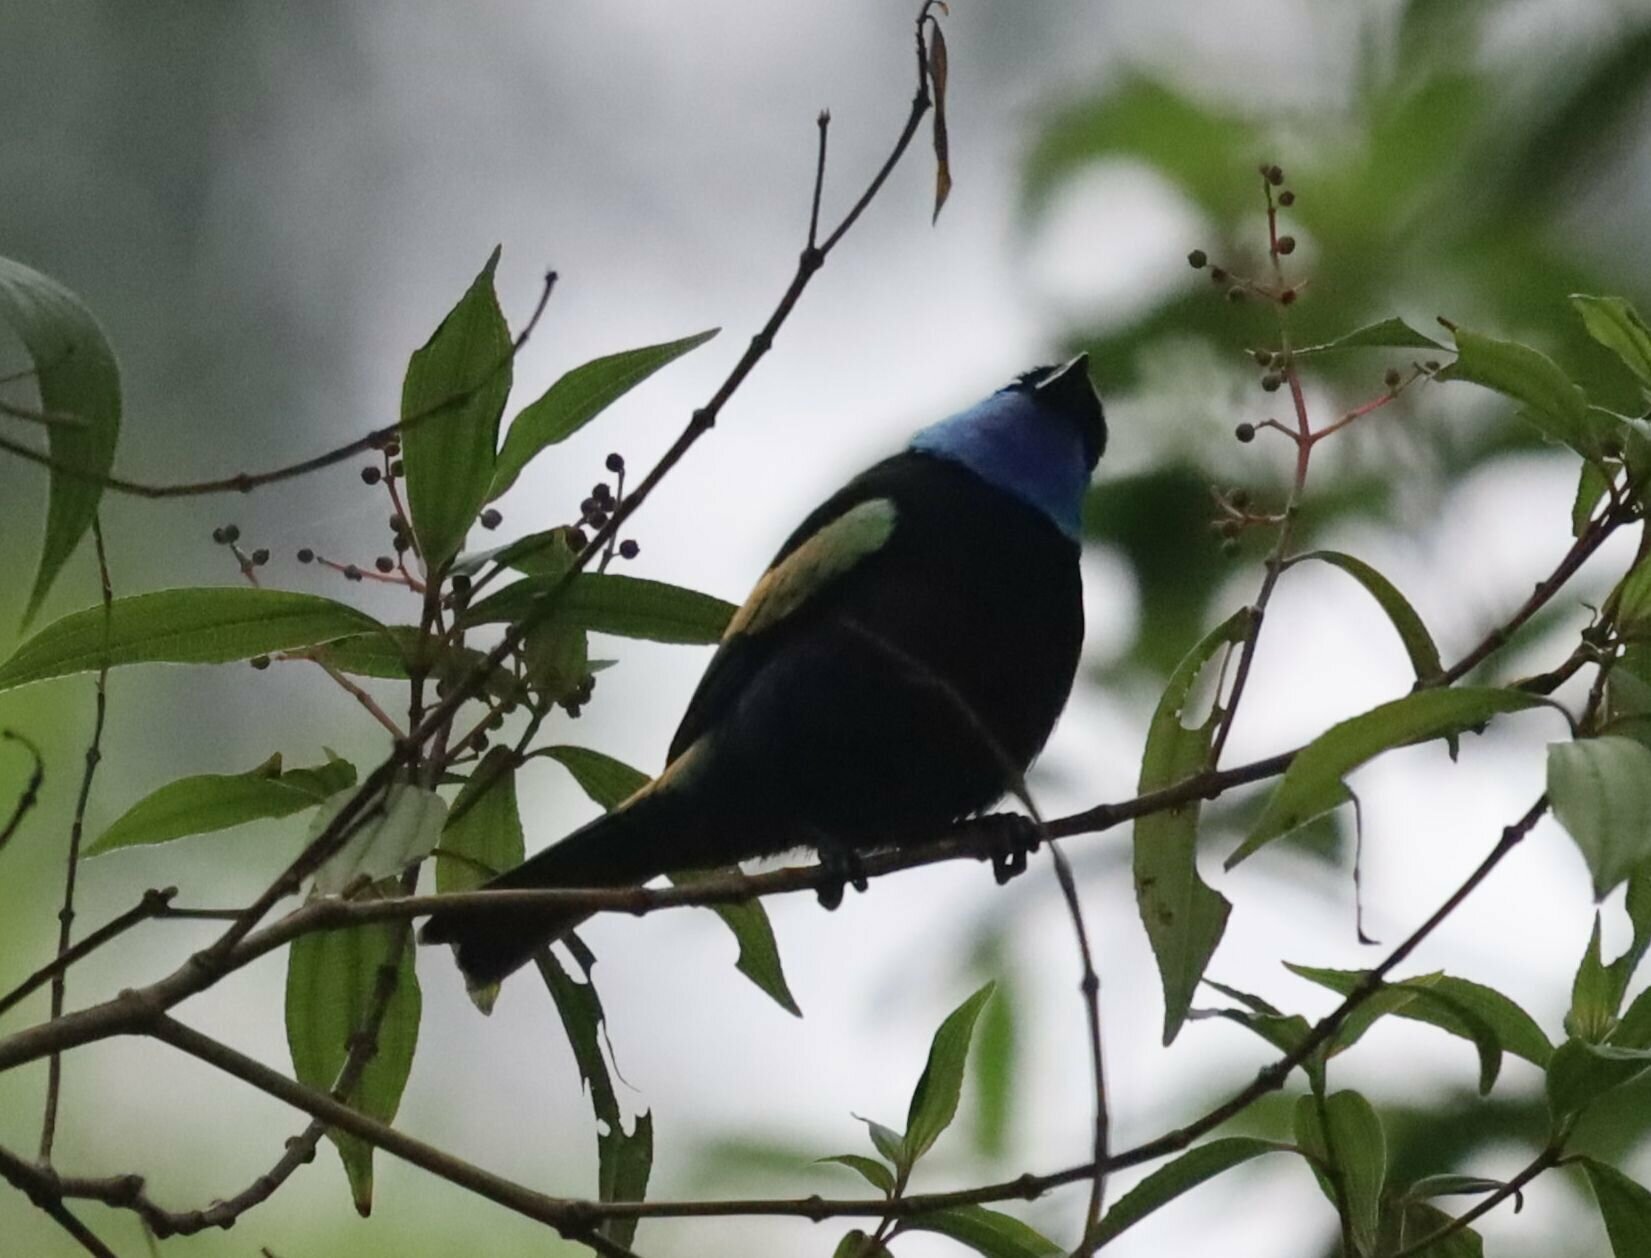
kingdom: Animalia
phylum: Chordata
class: Aves
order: Passeriformes
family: Thraupidae
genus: Stilpnia
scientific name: Stilpnia cyanicollis
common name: Blue-necked tanager
